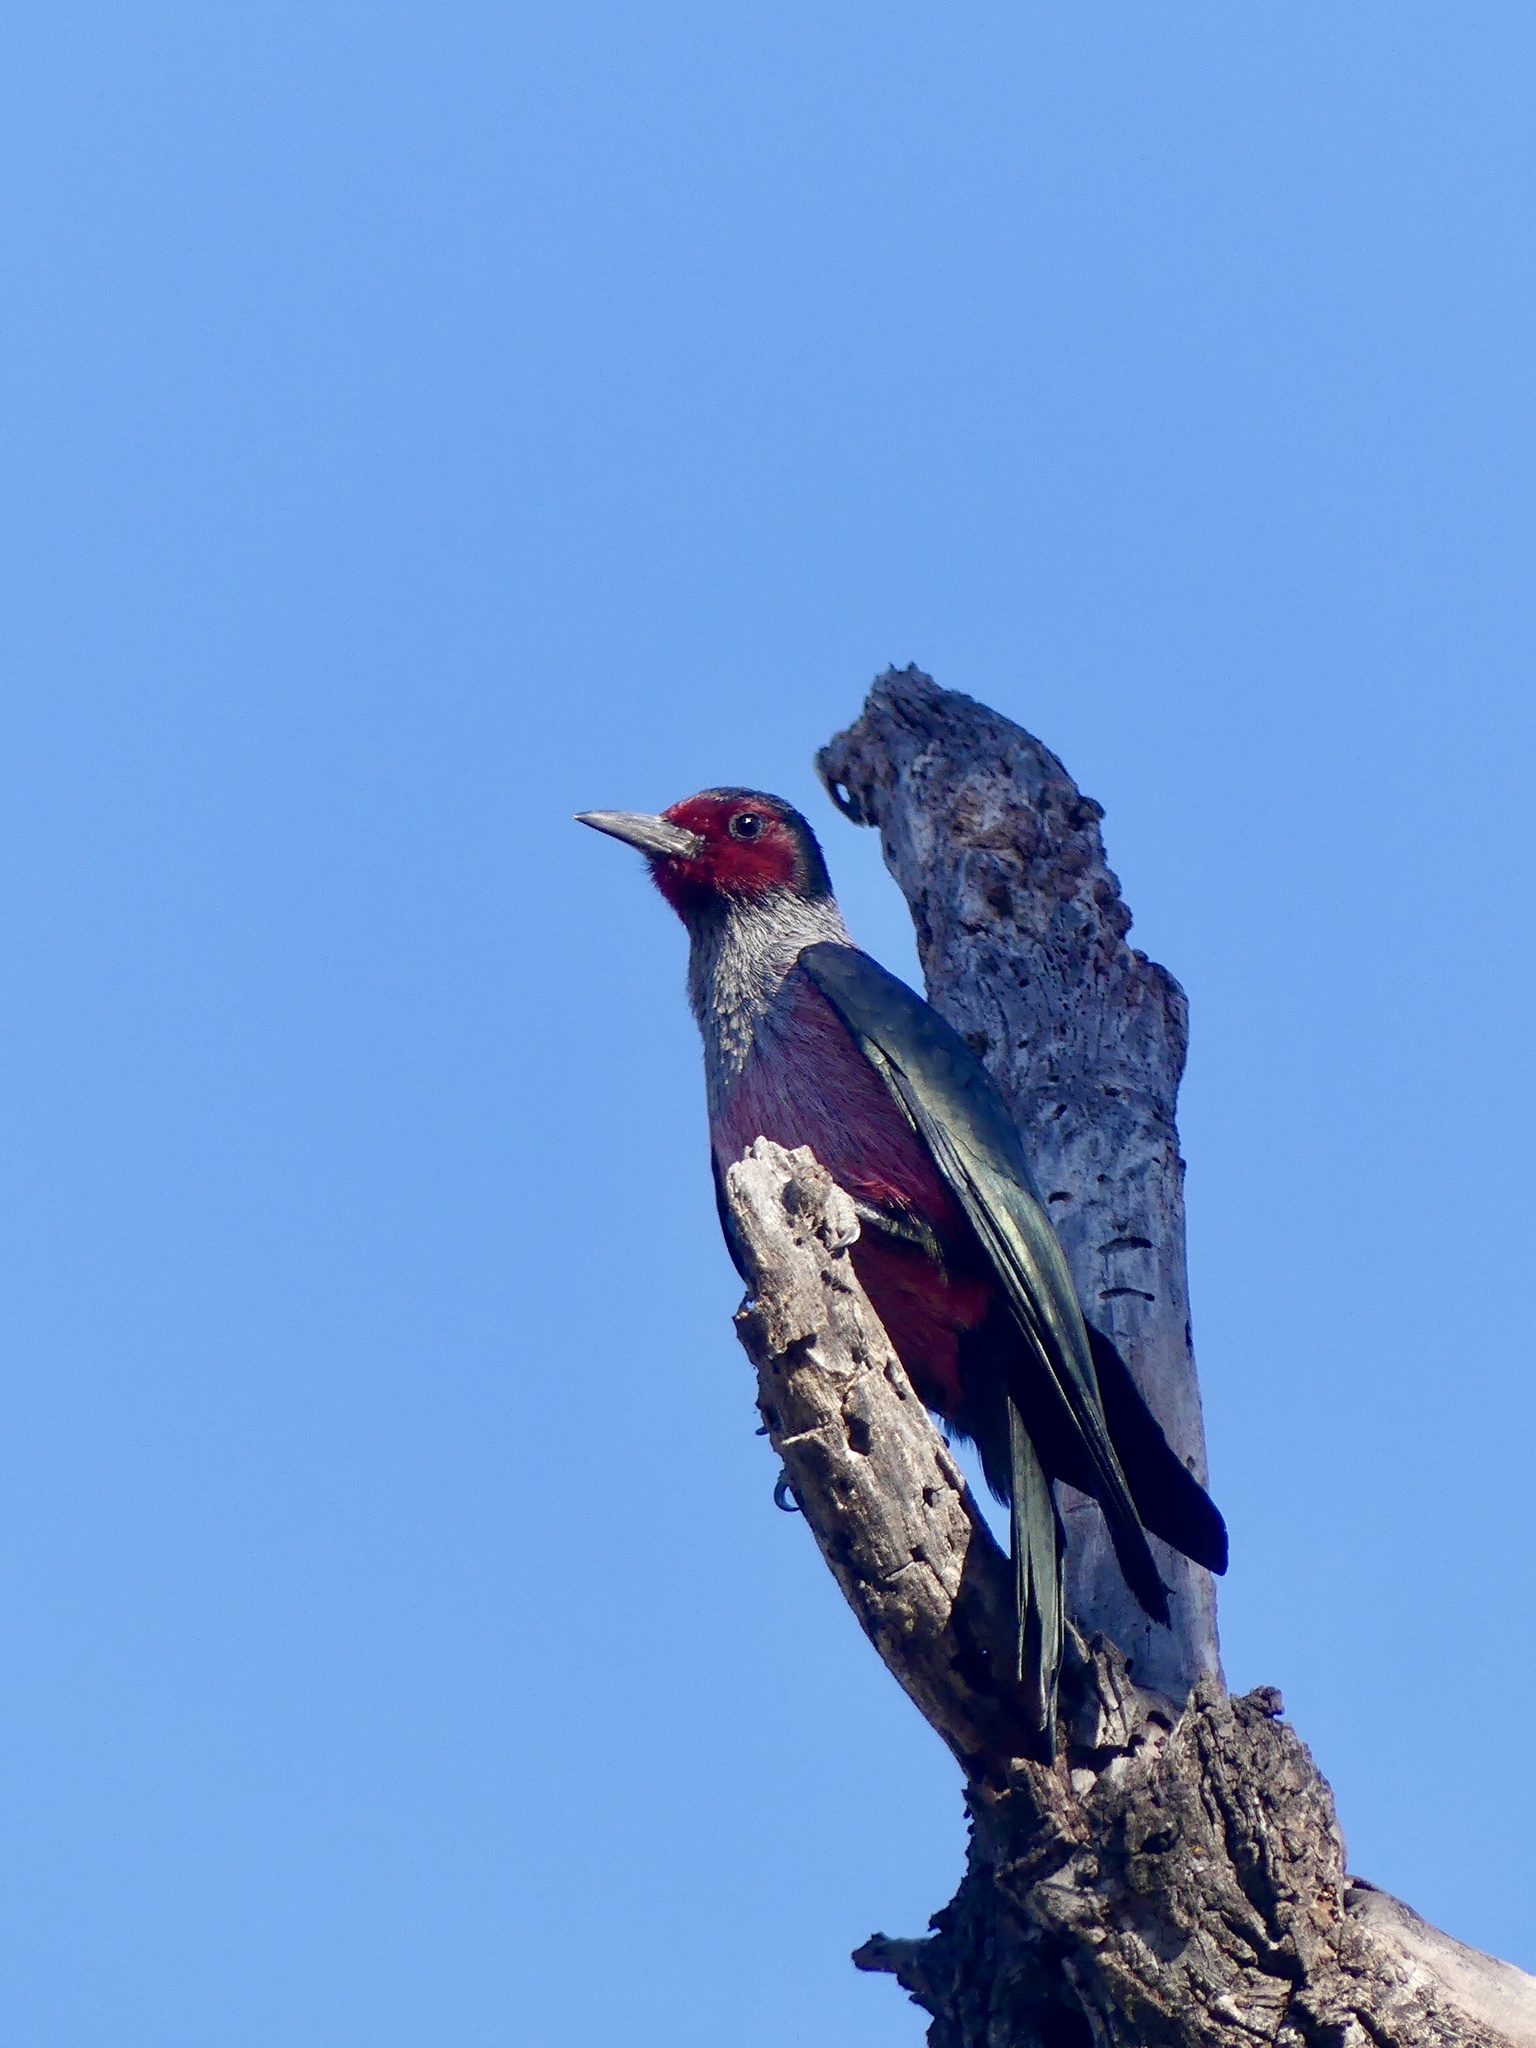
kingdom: Animalia
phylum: Chordata
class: Aves
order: Piciformes
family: Picidae
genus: Melanerpes
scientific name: Melanerpes lewis
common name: Lewis's woodpecker
